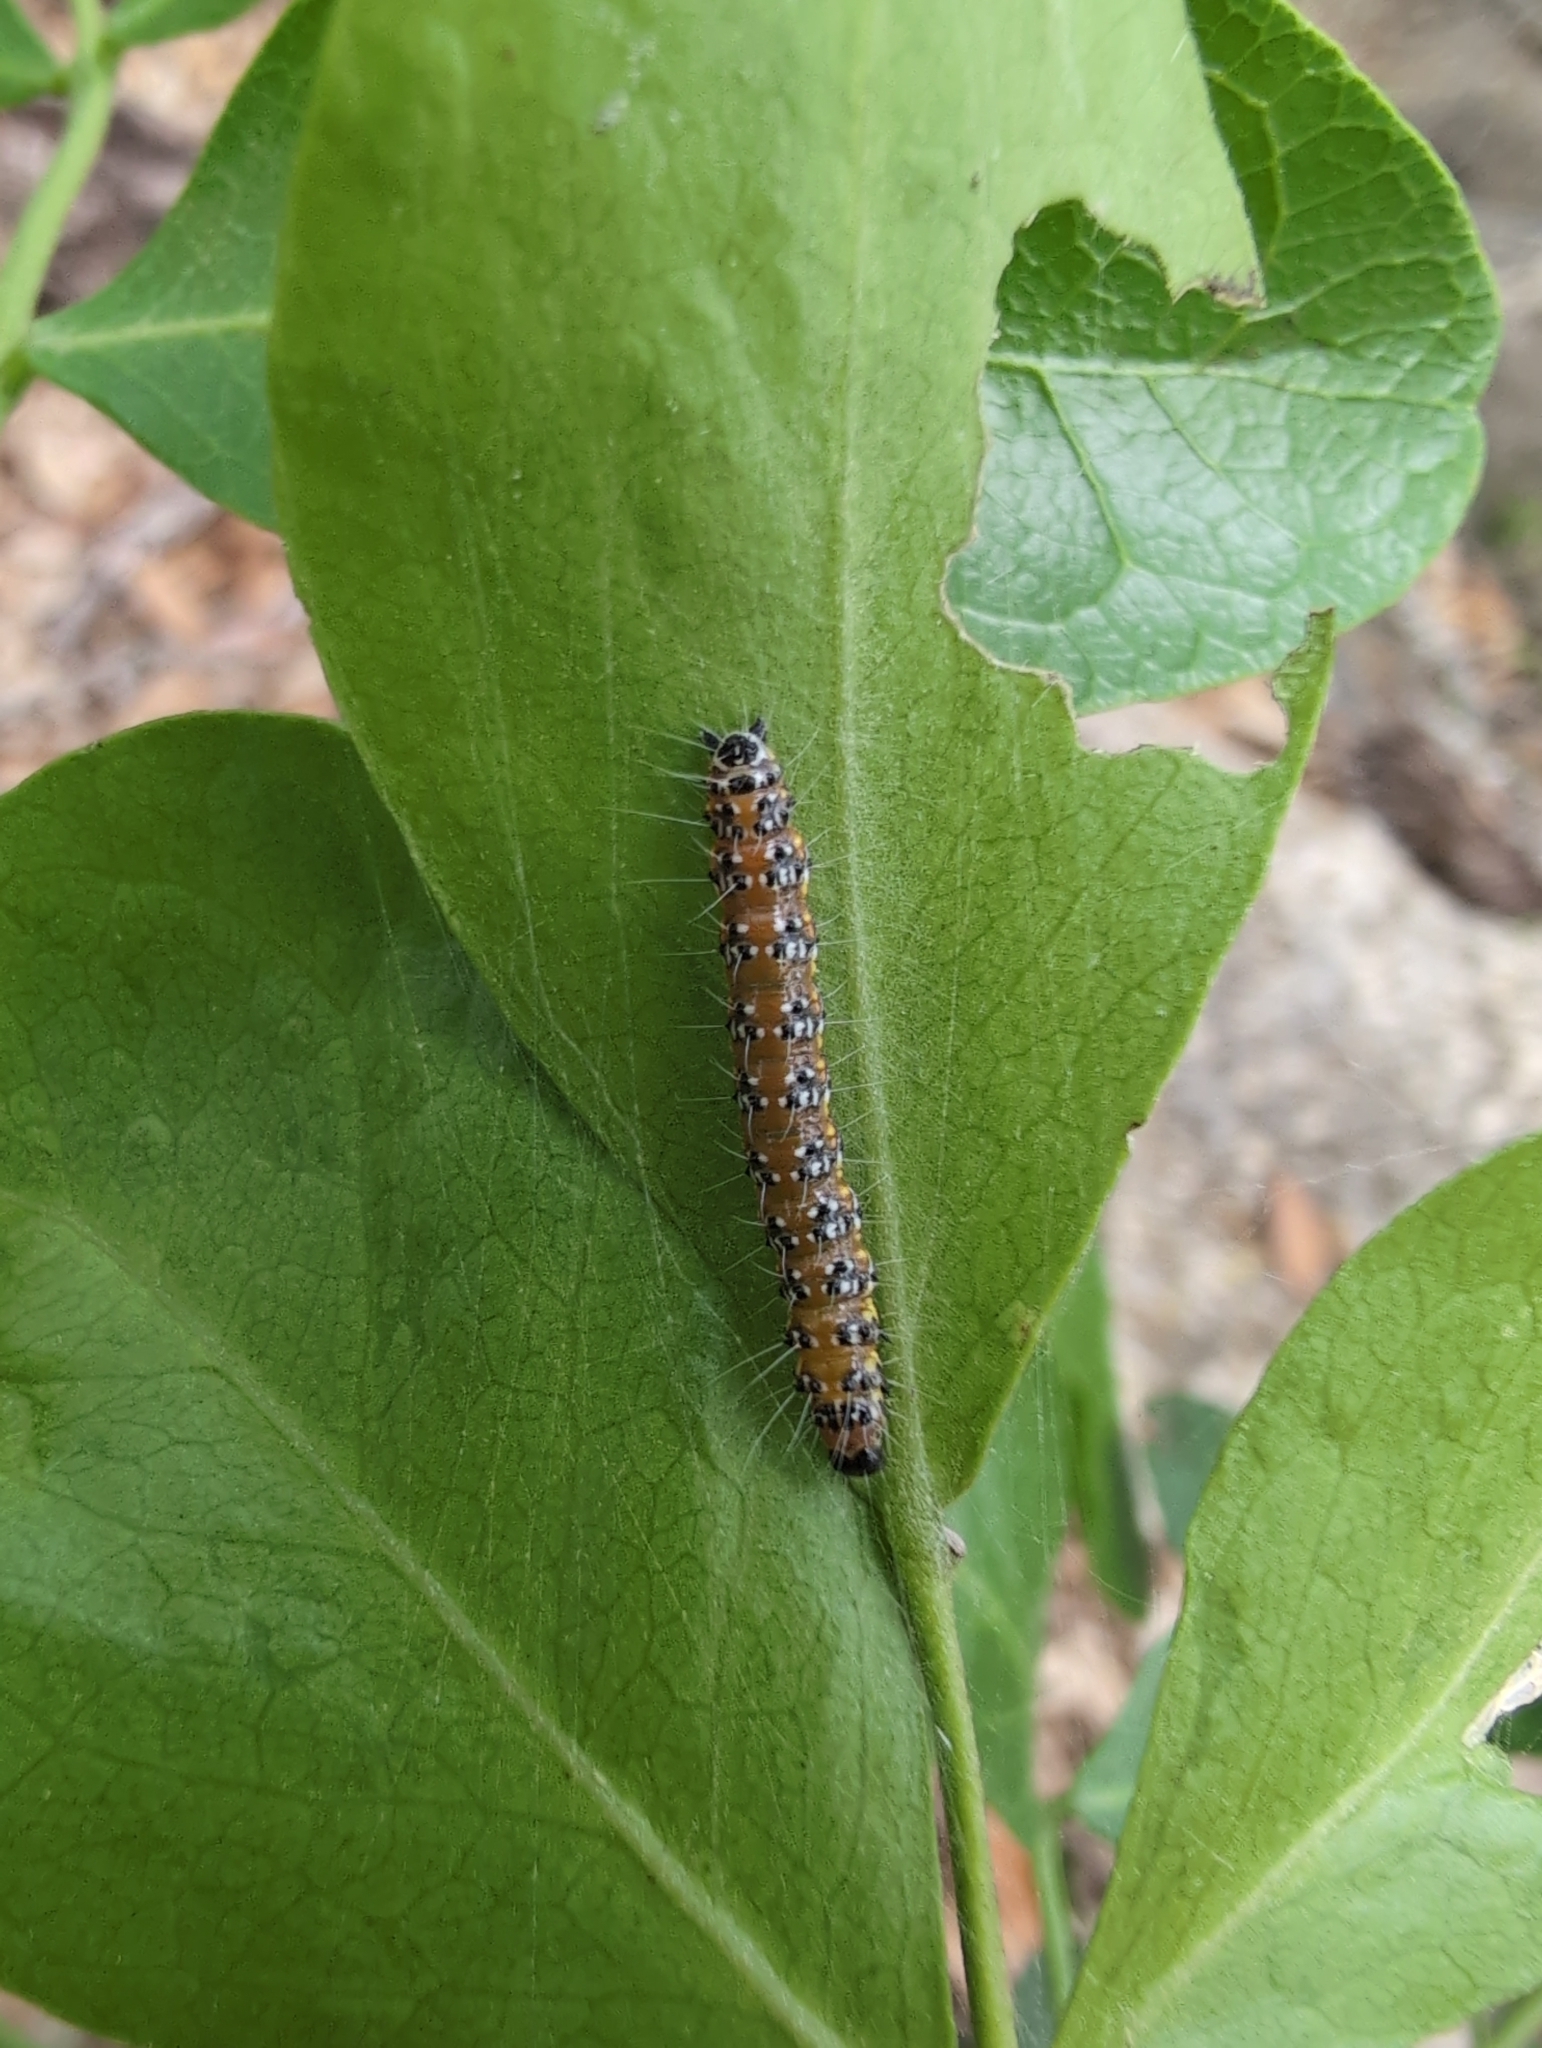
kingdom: Animalia
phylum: Arthropoda
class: Insecta
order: Lepidoptera
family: Crambidae
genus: Uresiphita
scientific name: Uresiphita reversalis
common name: Genista broom moth
